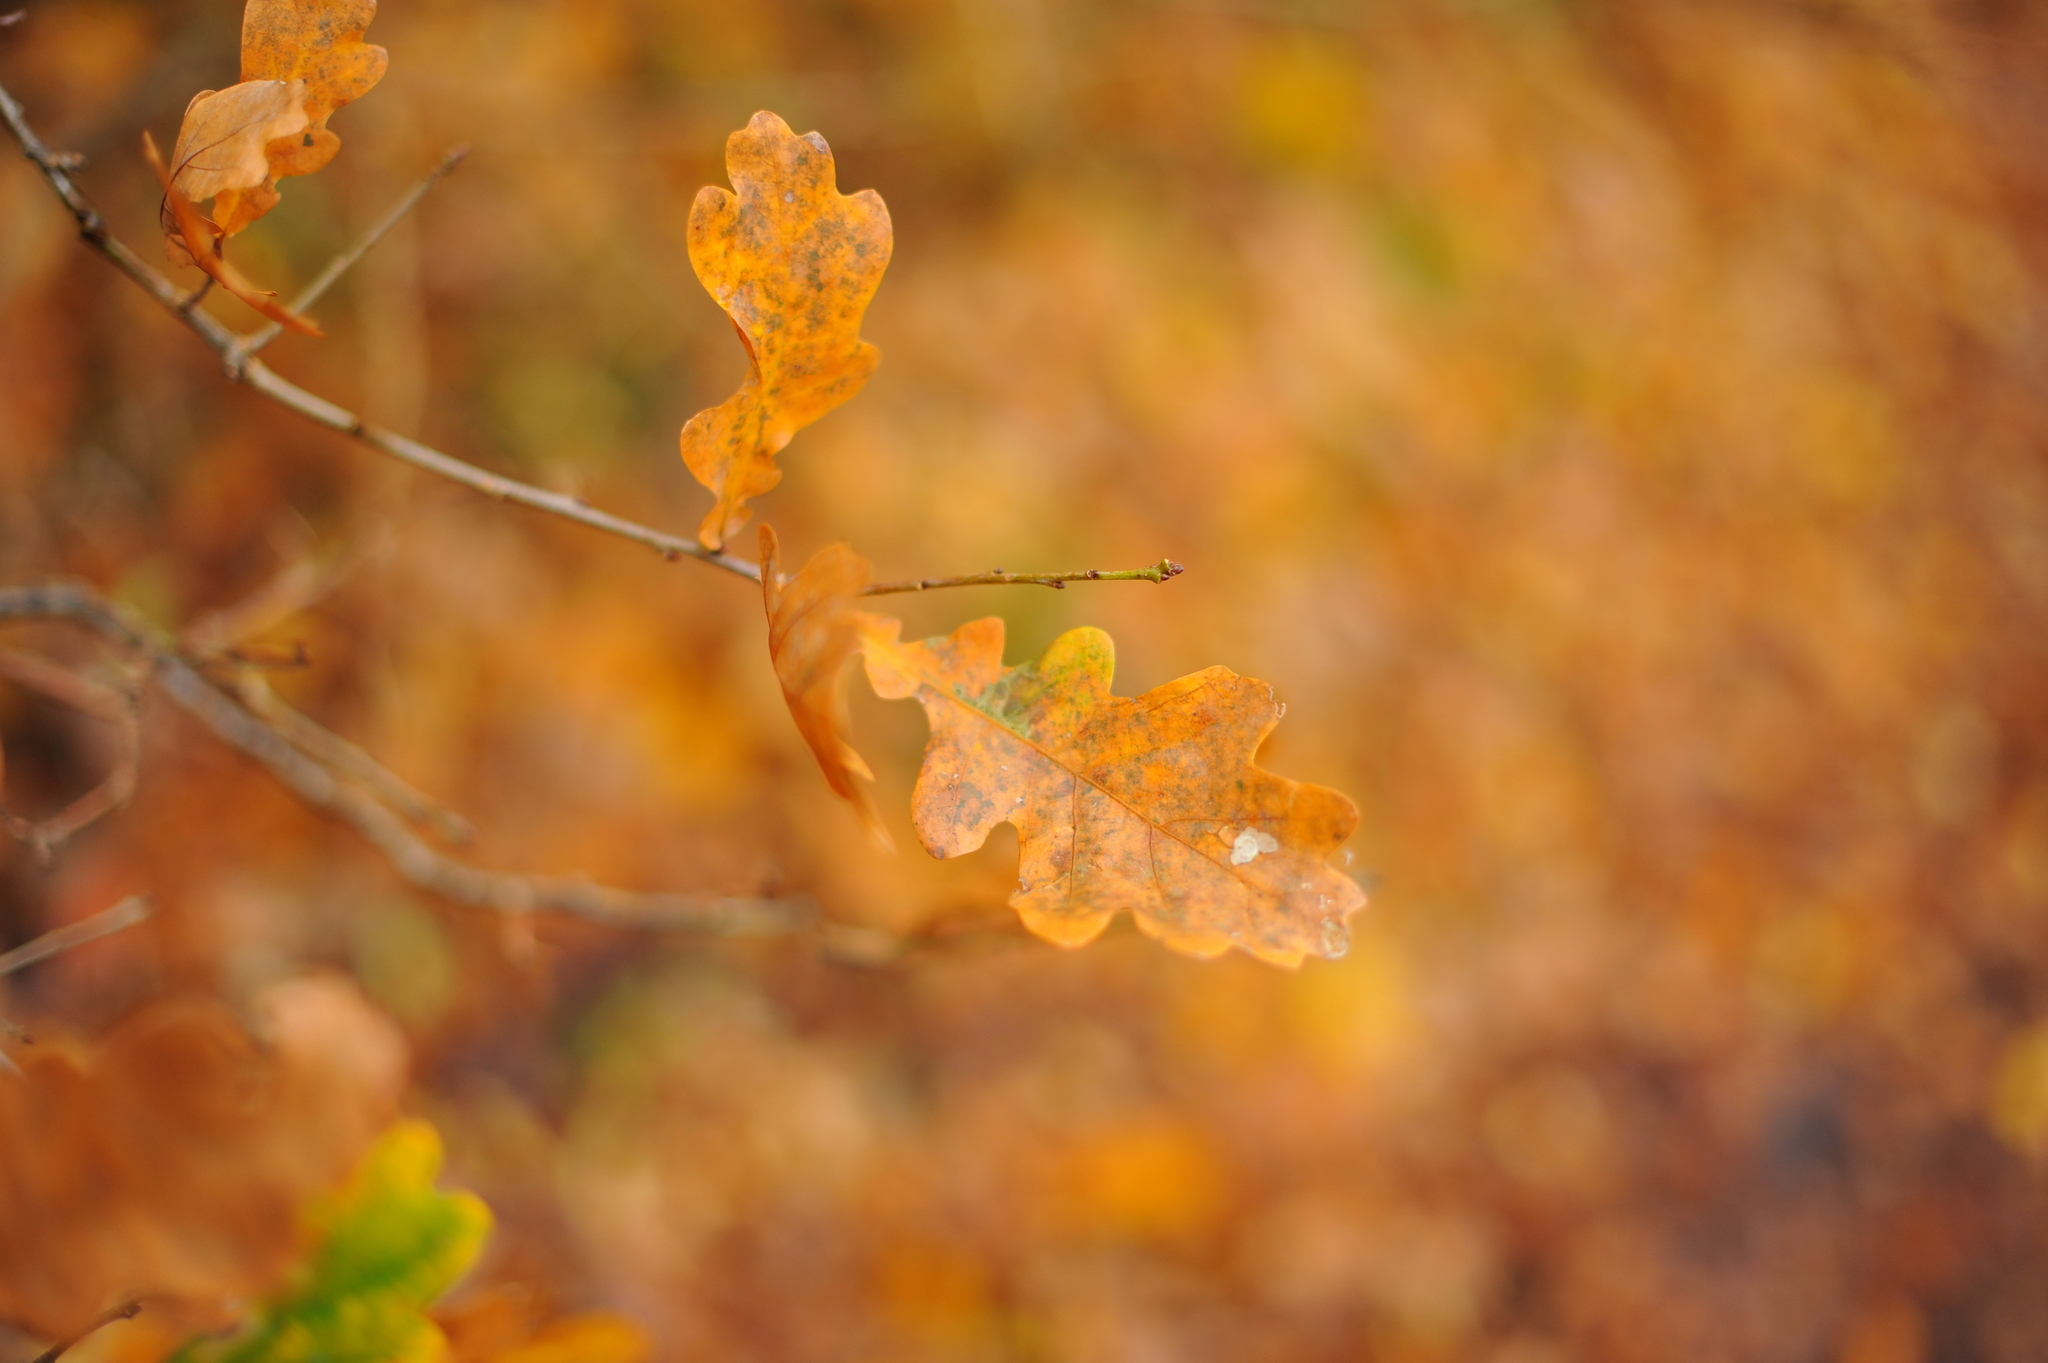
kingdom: Plantae
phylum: Tracheophyta
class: Magnoliopsida
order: Fagales
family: Fagaceae
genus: Quercus
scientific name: Quercus robur
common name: Pedunculate oak
